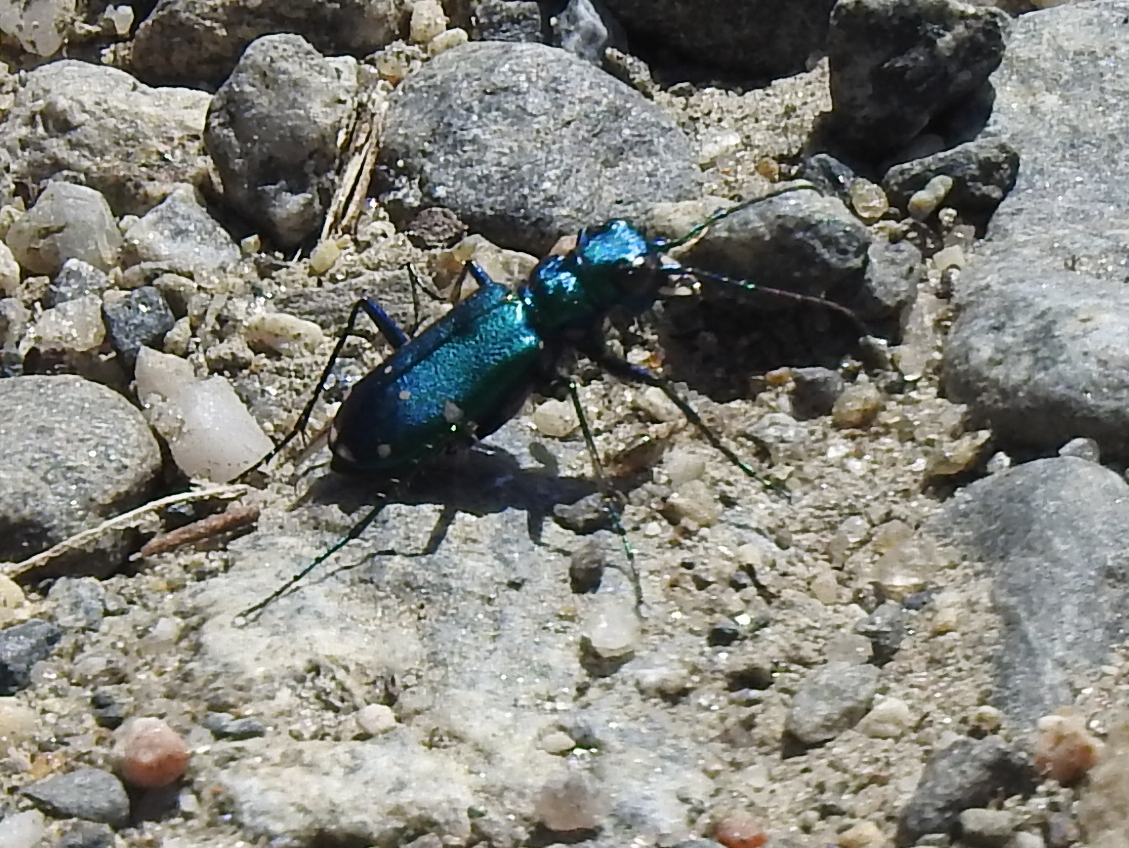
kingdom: Animalia
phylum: Arthropoda
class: Insecta
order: Coleoptera
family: Carabidae
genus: Cicindela
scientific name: Cicindela sexguttata
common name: Six-spotted tiger beetle
